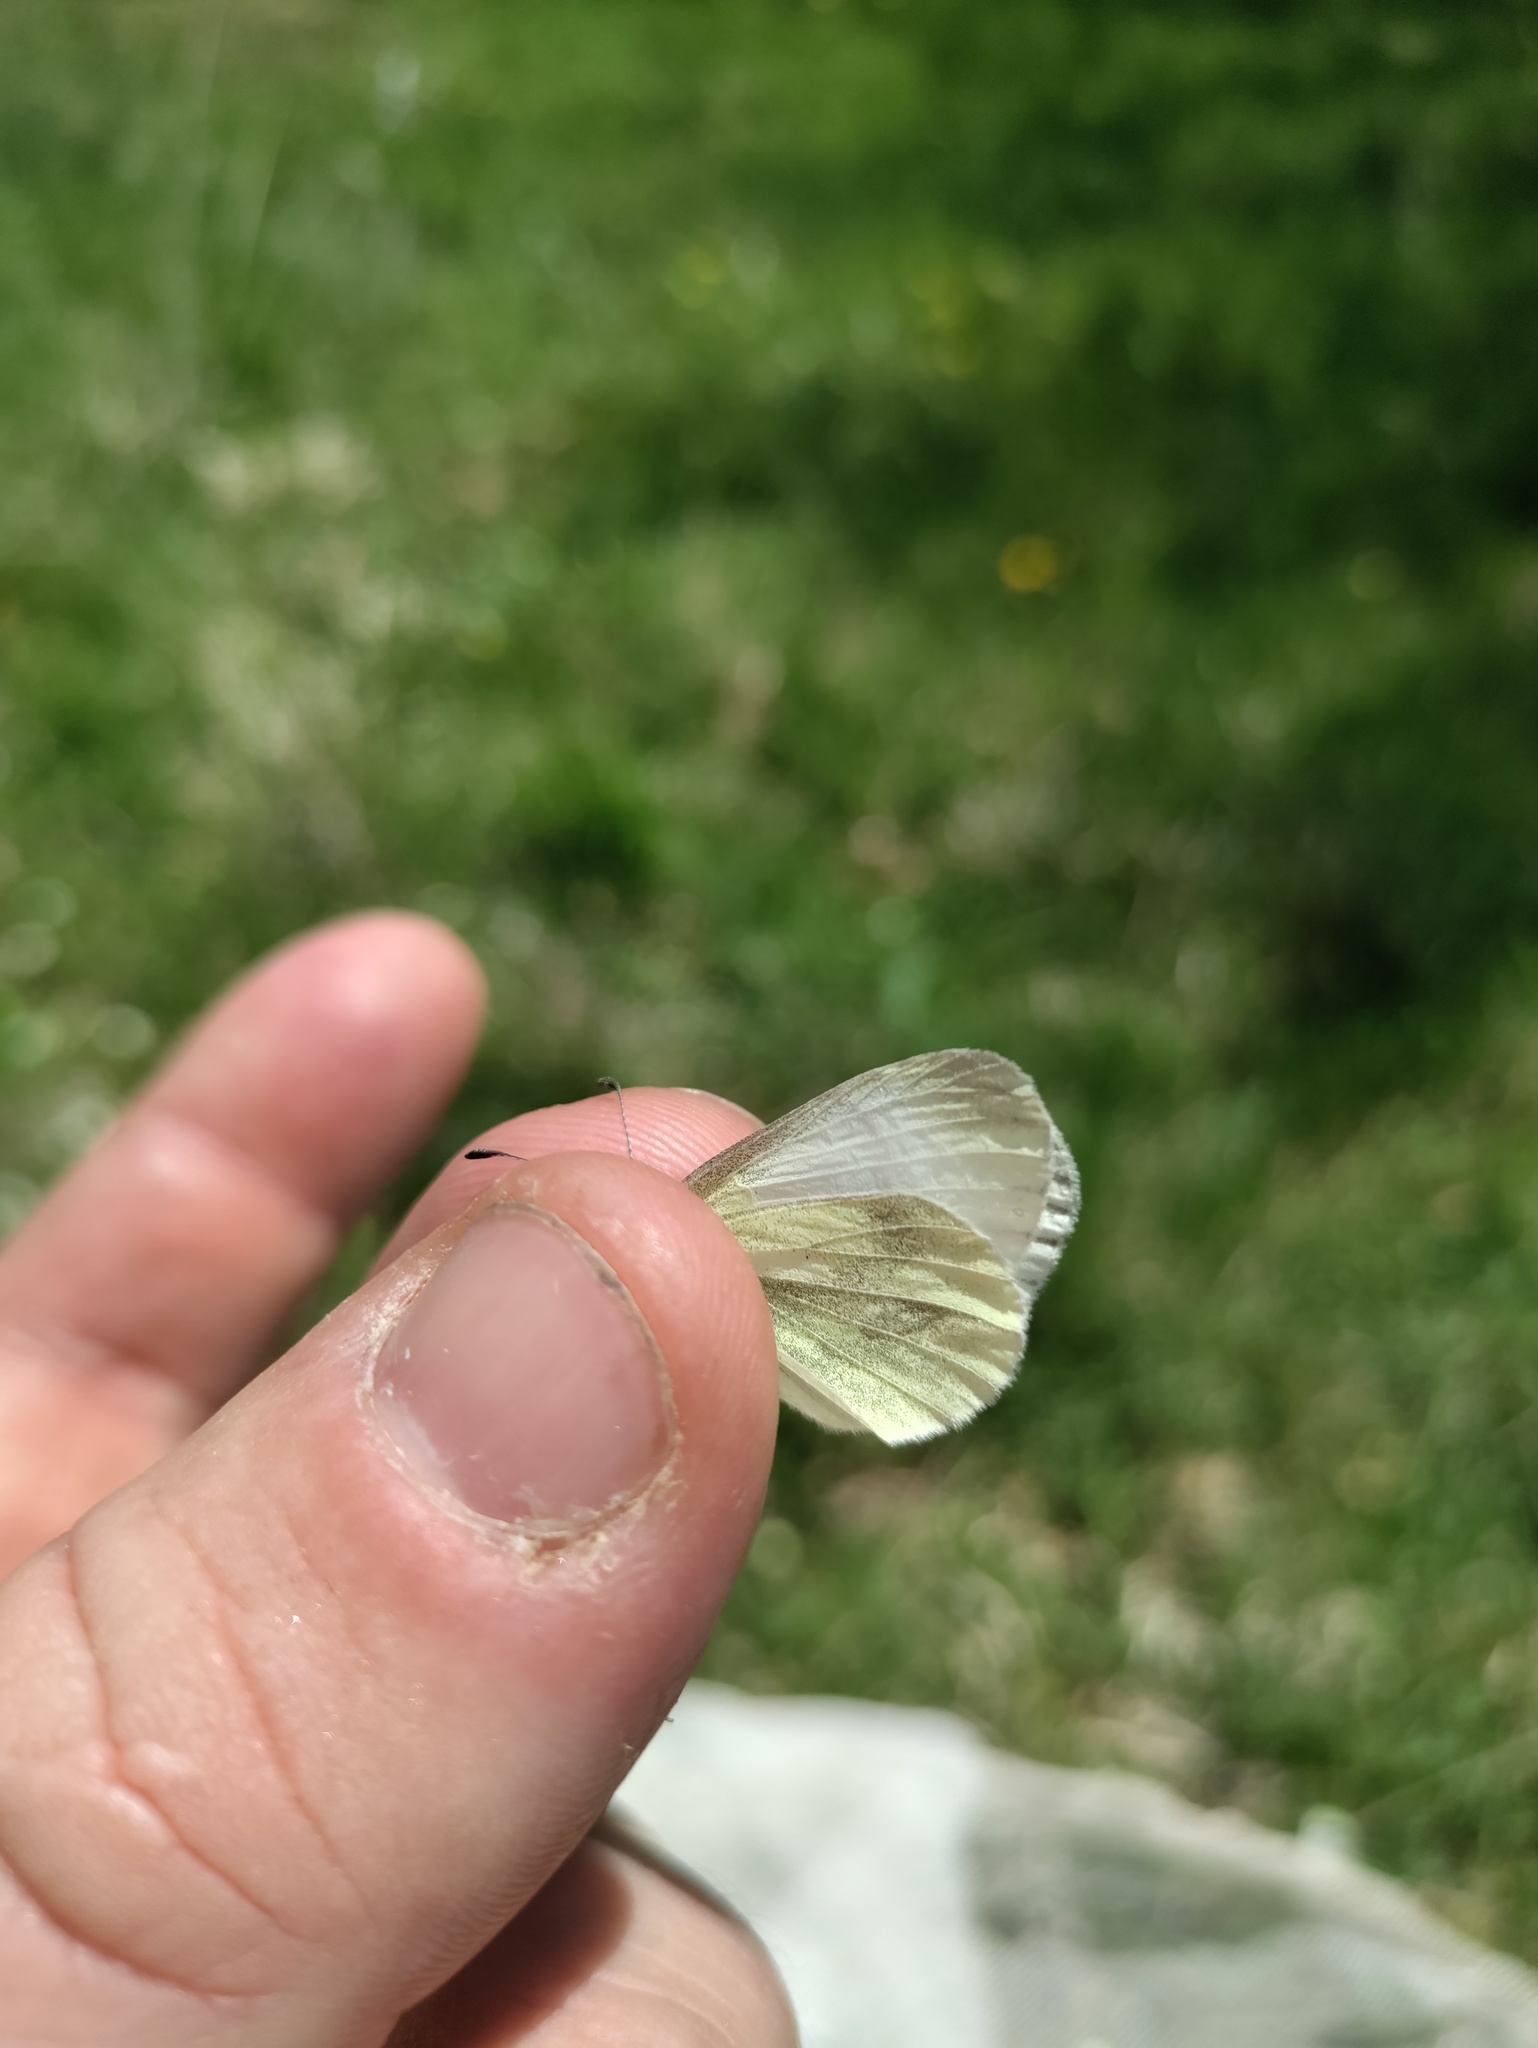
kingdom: Animalia
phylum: Arthropoda
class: Insecta
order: Lepidoptera
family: Pieridae
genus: Leptidea
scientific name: Leptidea
